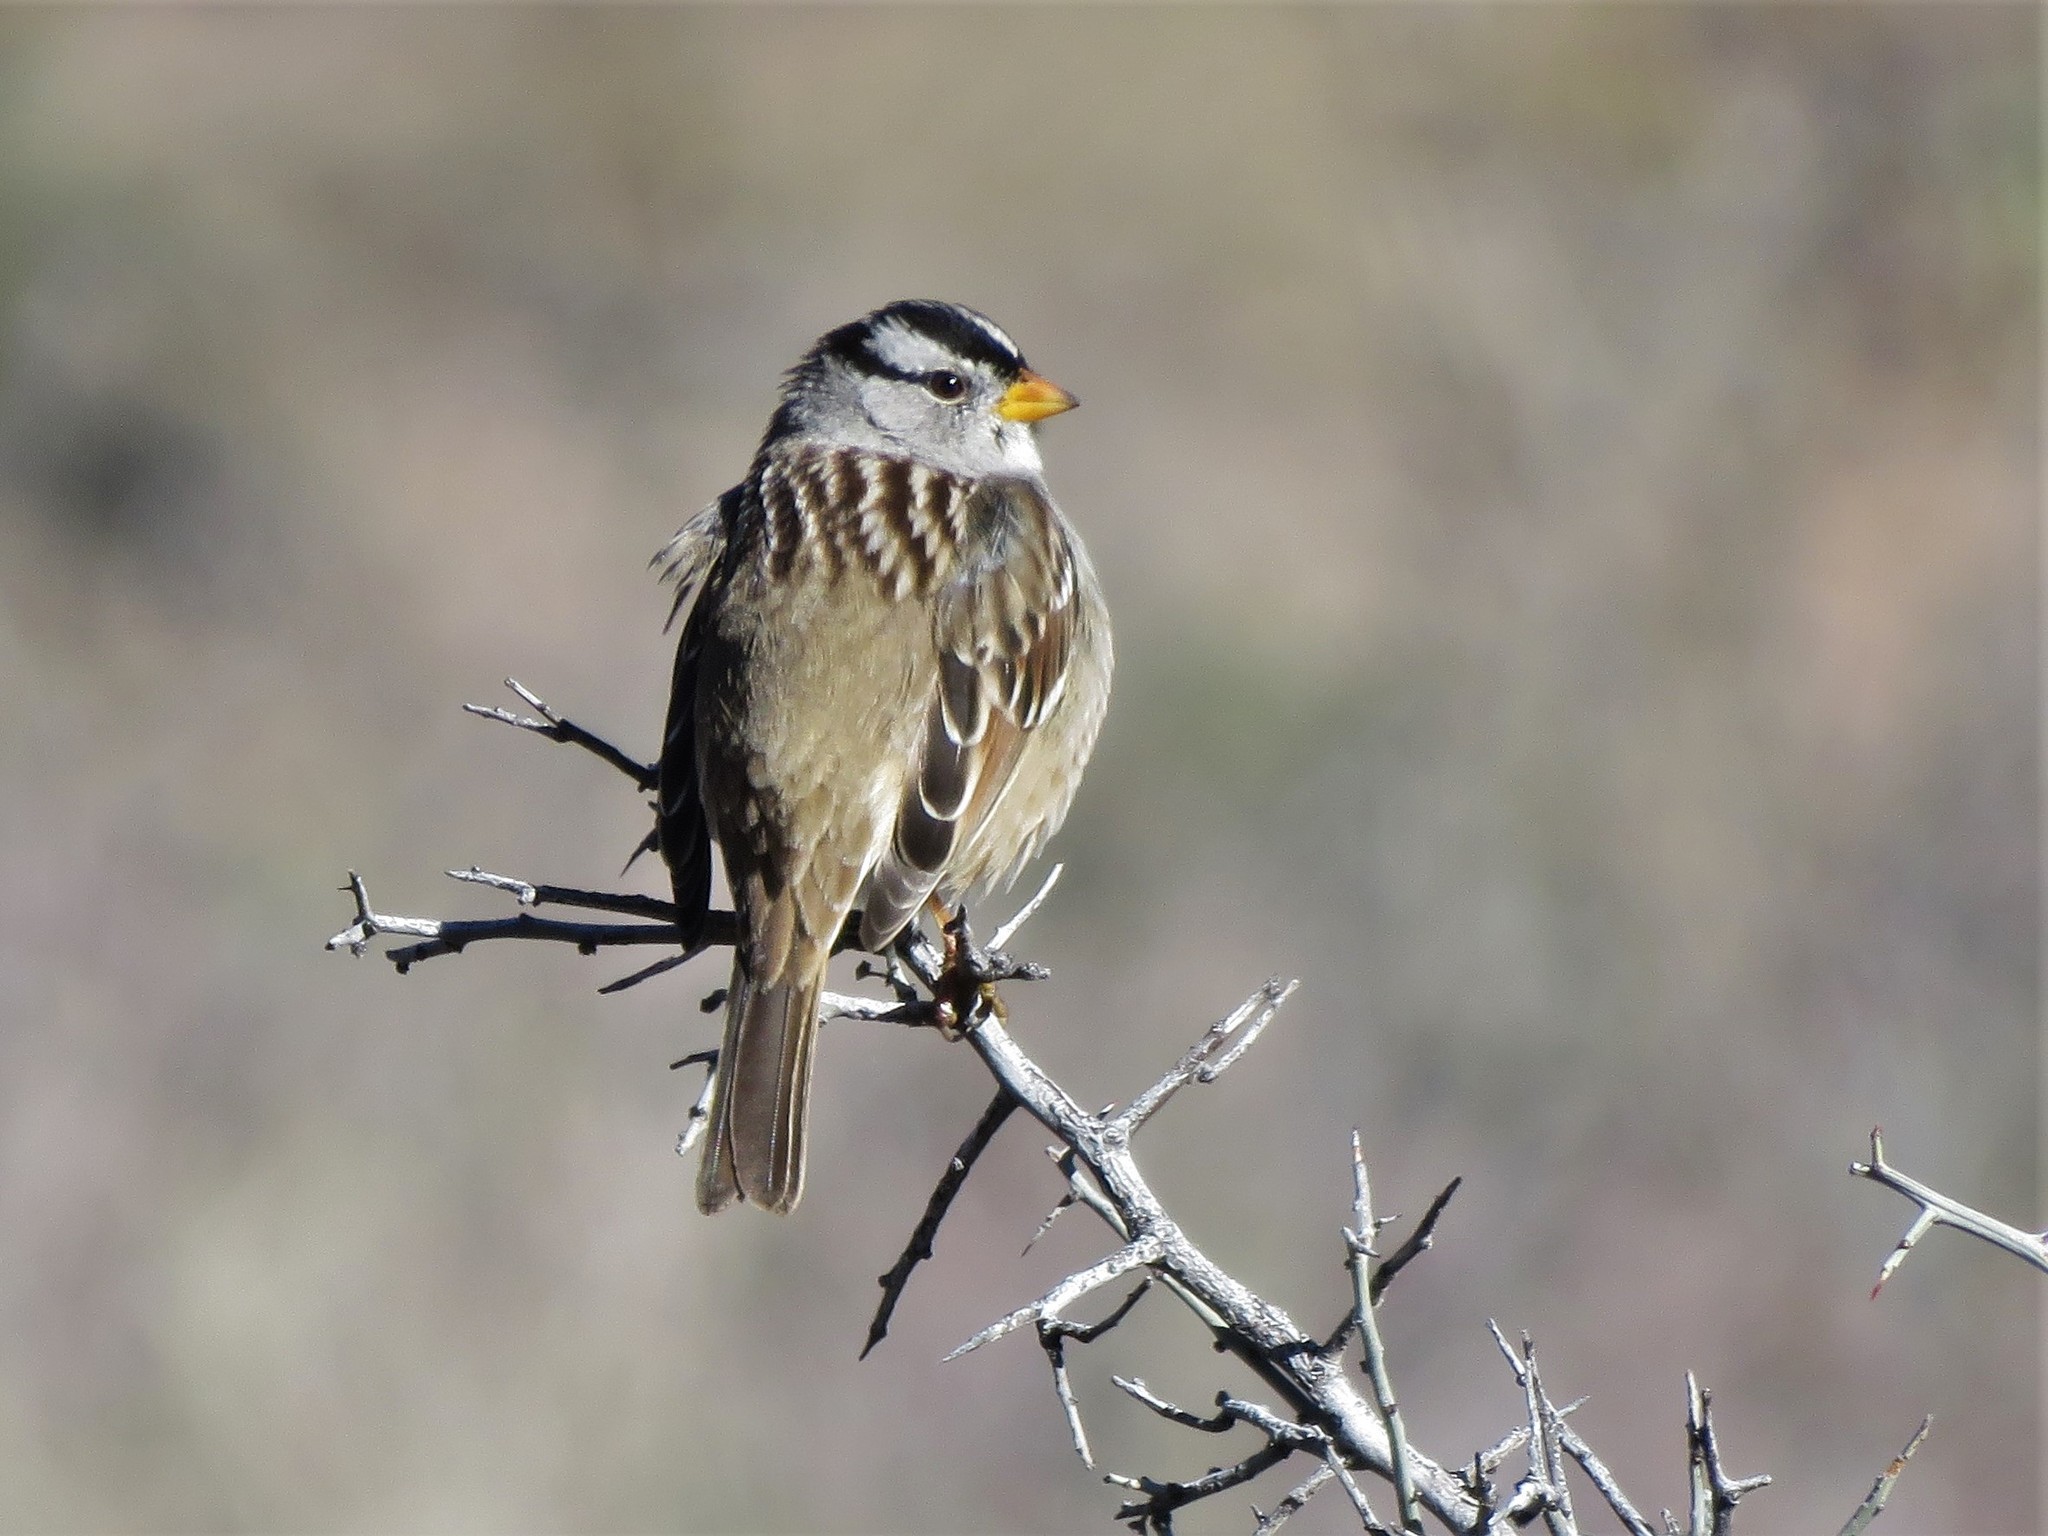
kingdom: Animalia
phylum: Chordata
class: Aves
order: Passeriformes
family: Passerellidae
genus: Zonotrichia
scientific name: Zonotrichia leucophrys
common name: White-crowned sparrow
